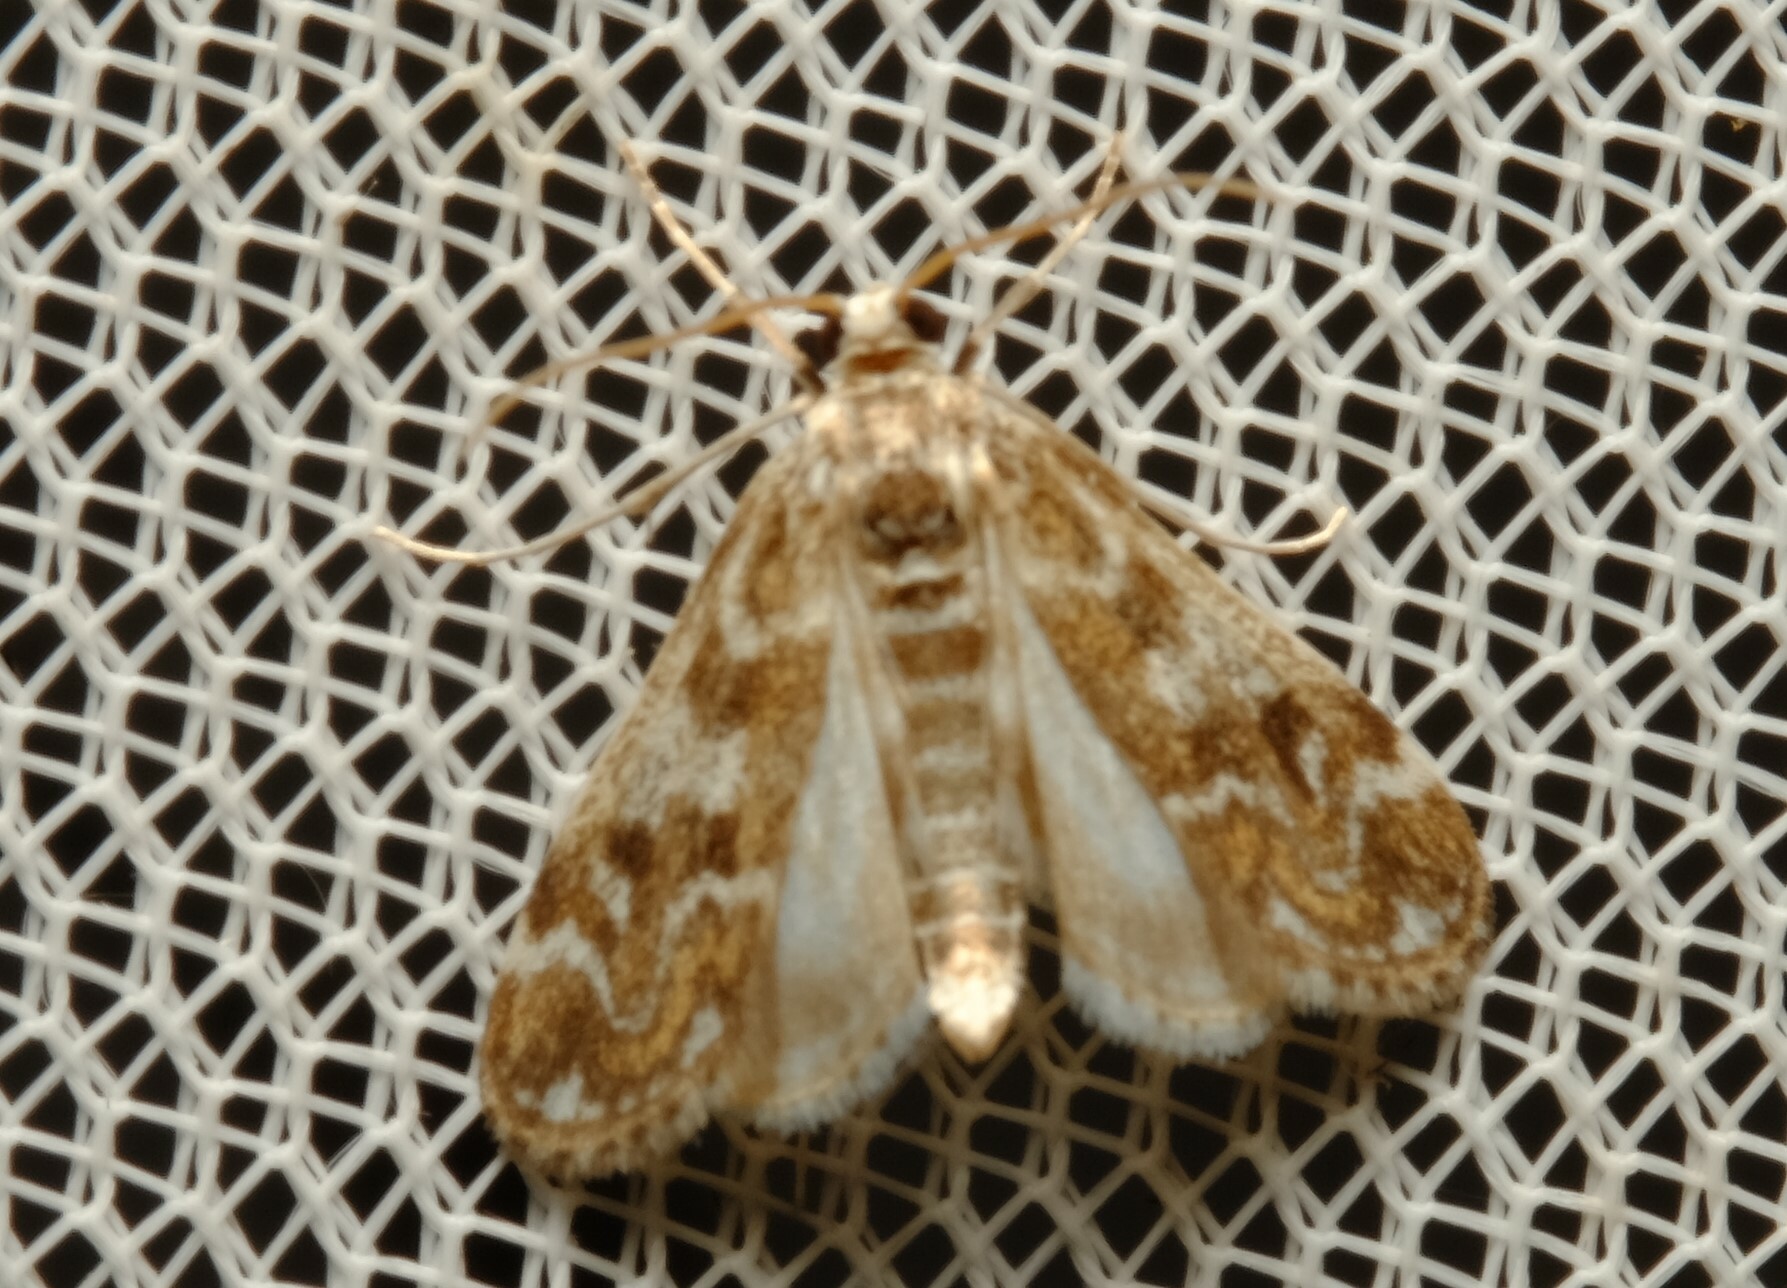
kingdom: Animalia
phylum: Arthropoda
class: Insecta
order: Lepidoptera
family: Crambidae
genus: Hygraula
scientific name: Hygraula nitens
